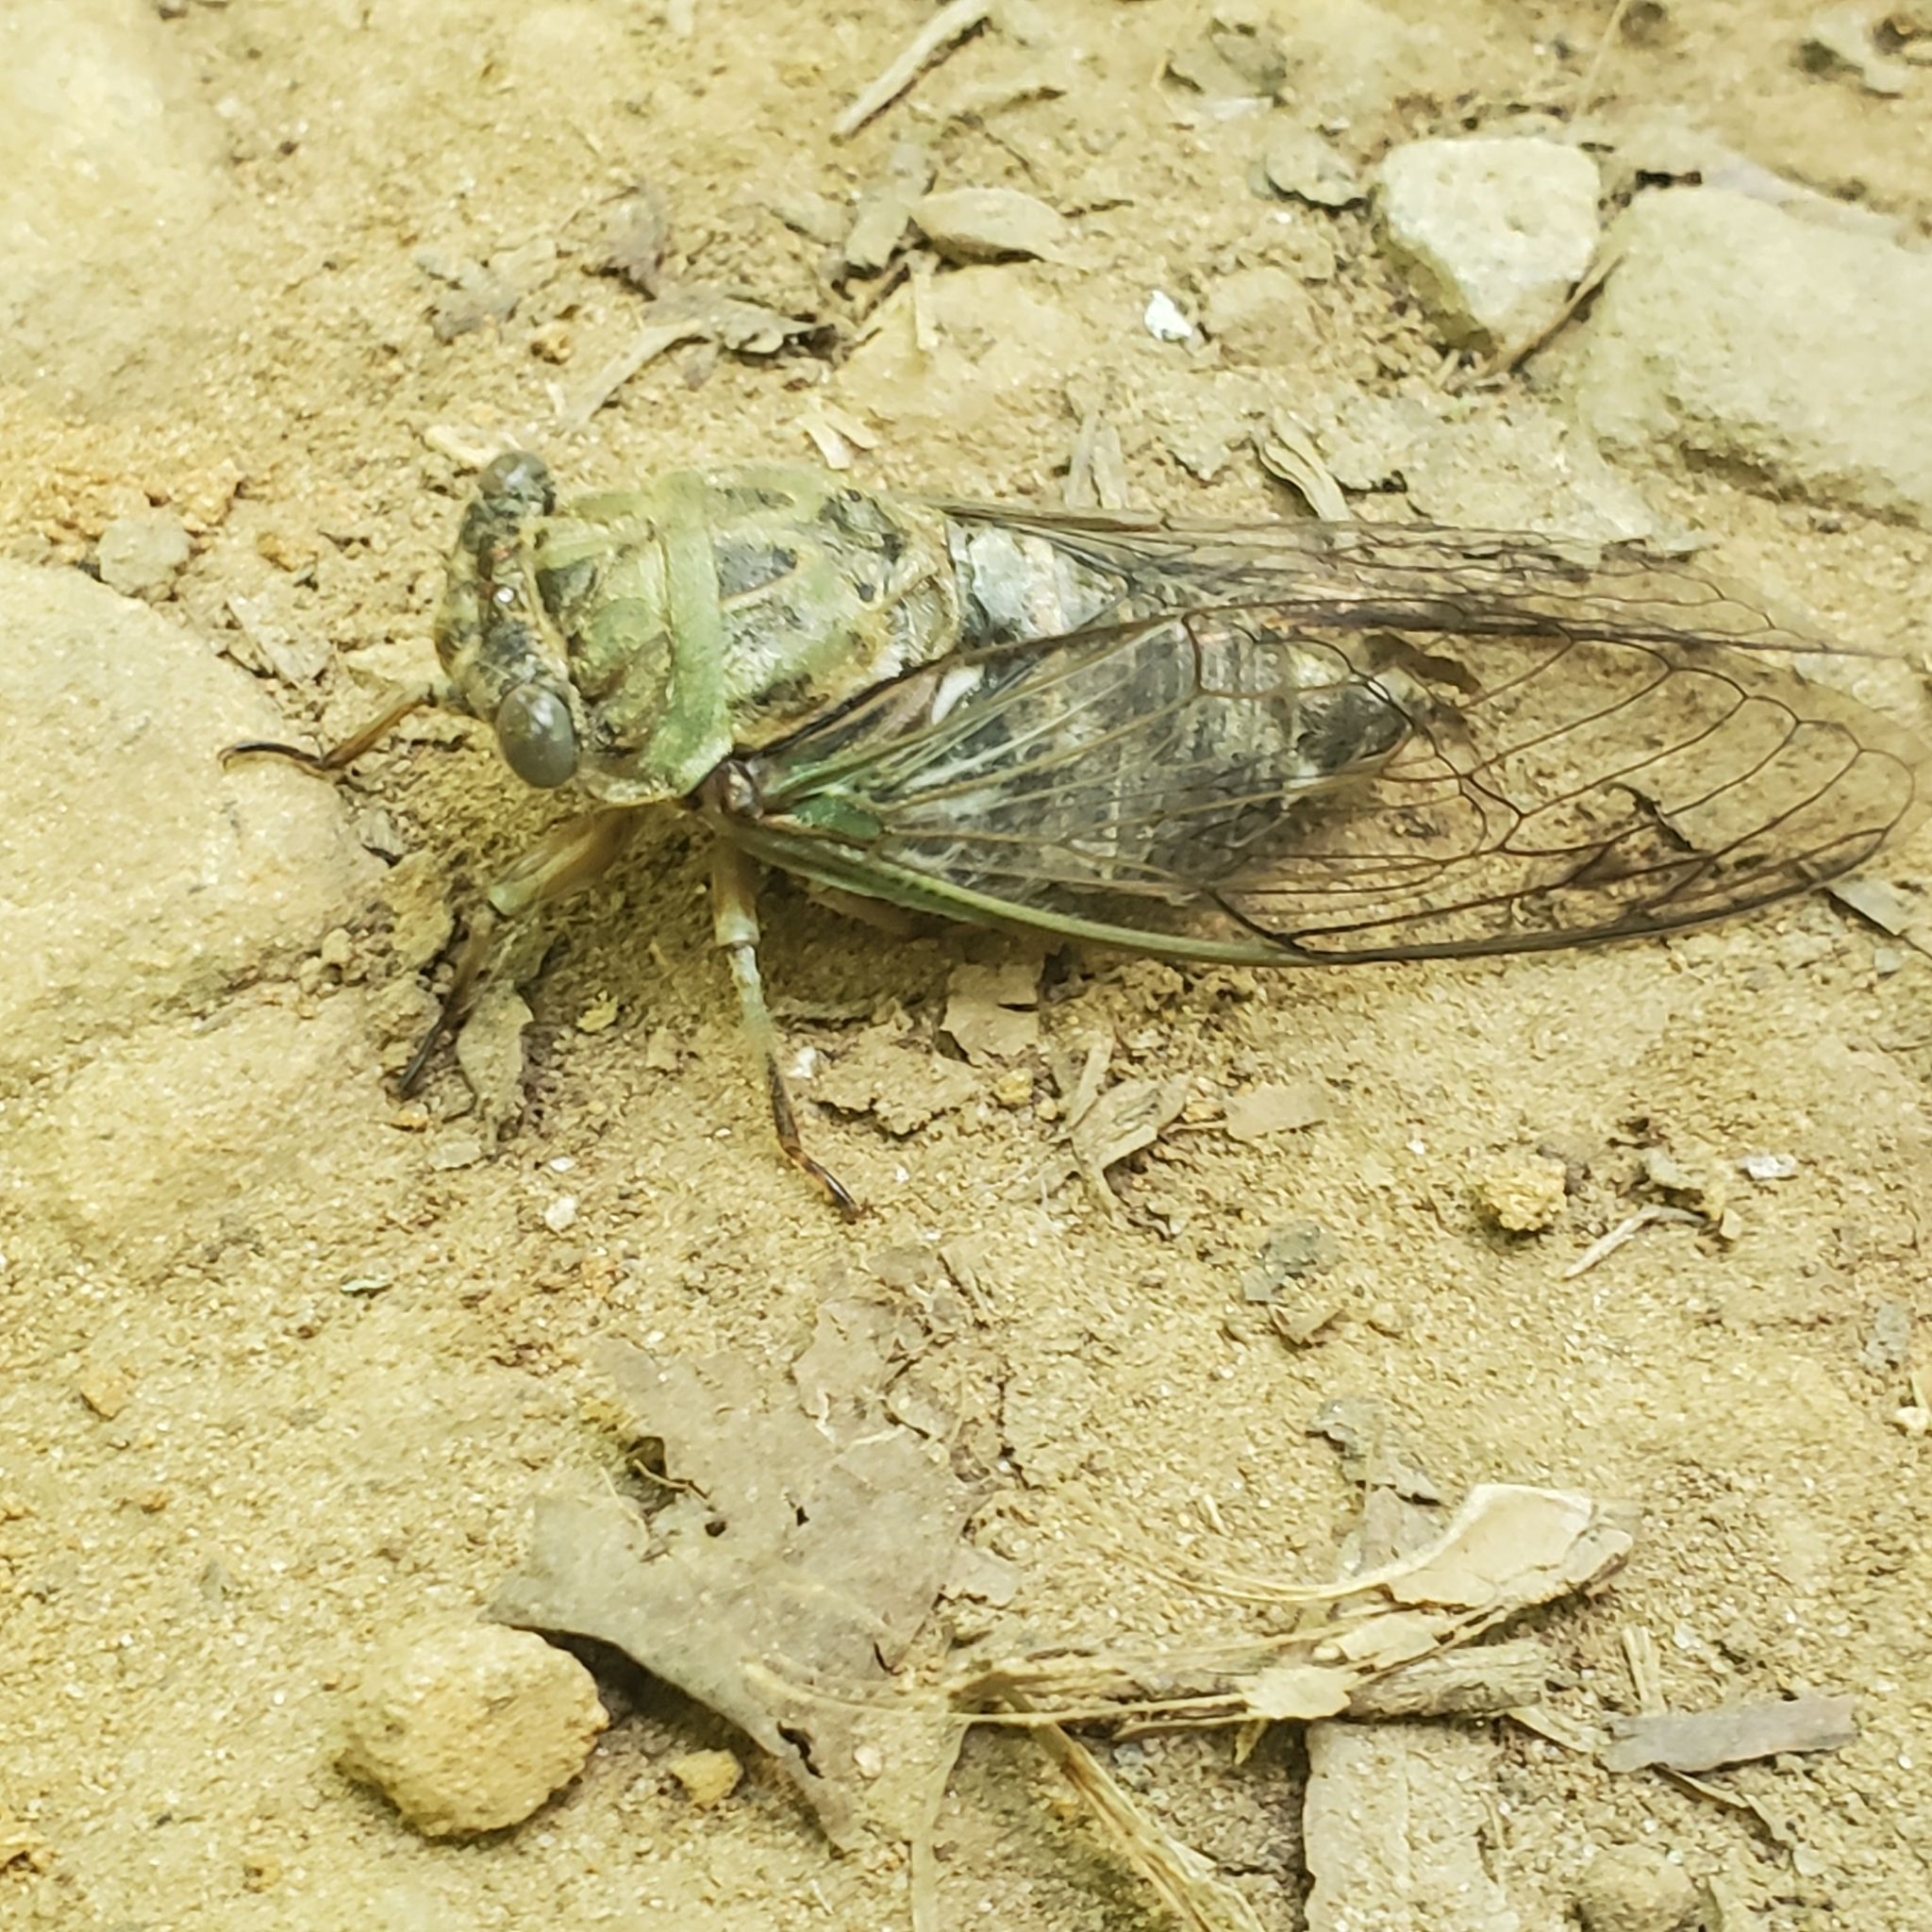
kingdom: Animalia
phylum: Arthropoda
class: Insecta
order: Hemiptera
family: Cicadidae
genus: Neotibicen
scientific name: Neotibicen winnemanna
